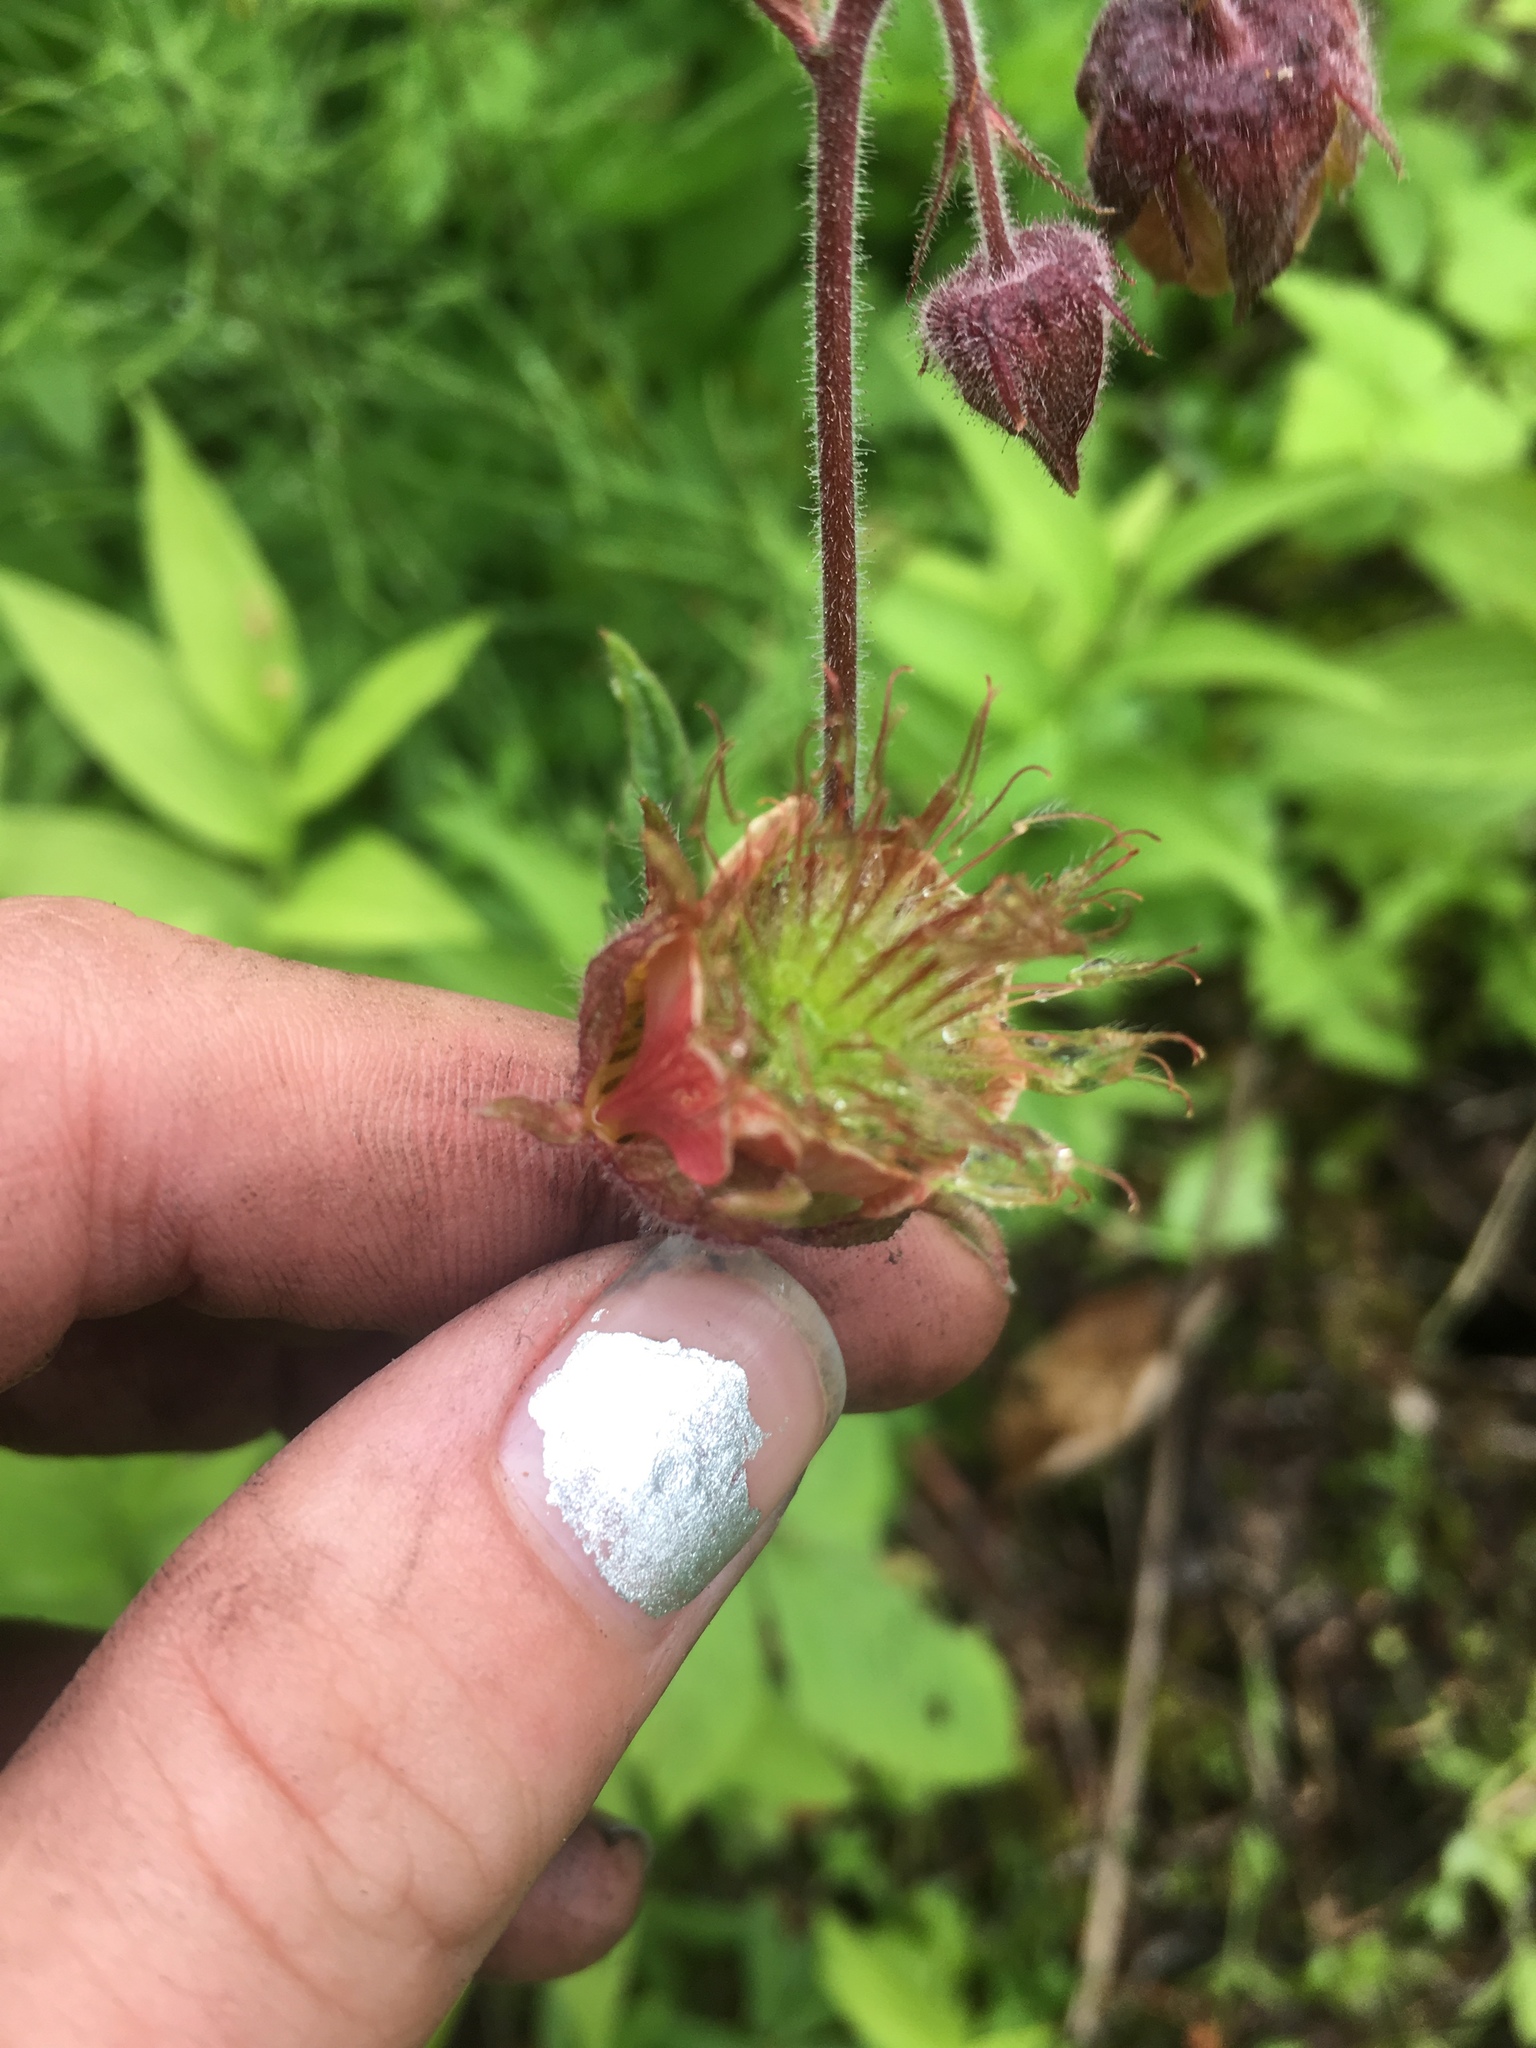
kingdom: Plantae
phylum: Tracheophyta
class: Magnoliopsida
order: Rosales
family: Rosaceae
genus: Geum
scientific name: Geum rivale
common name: Water avens
